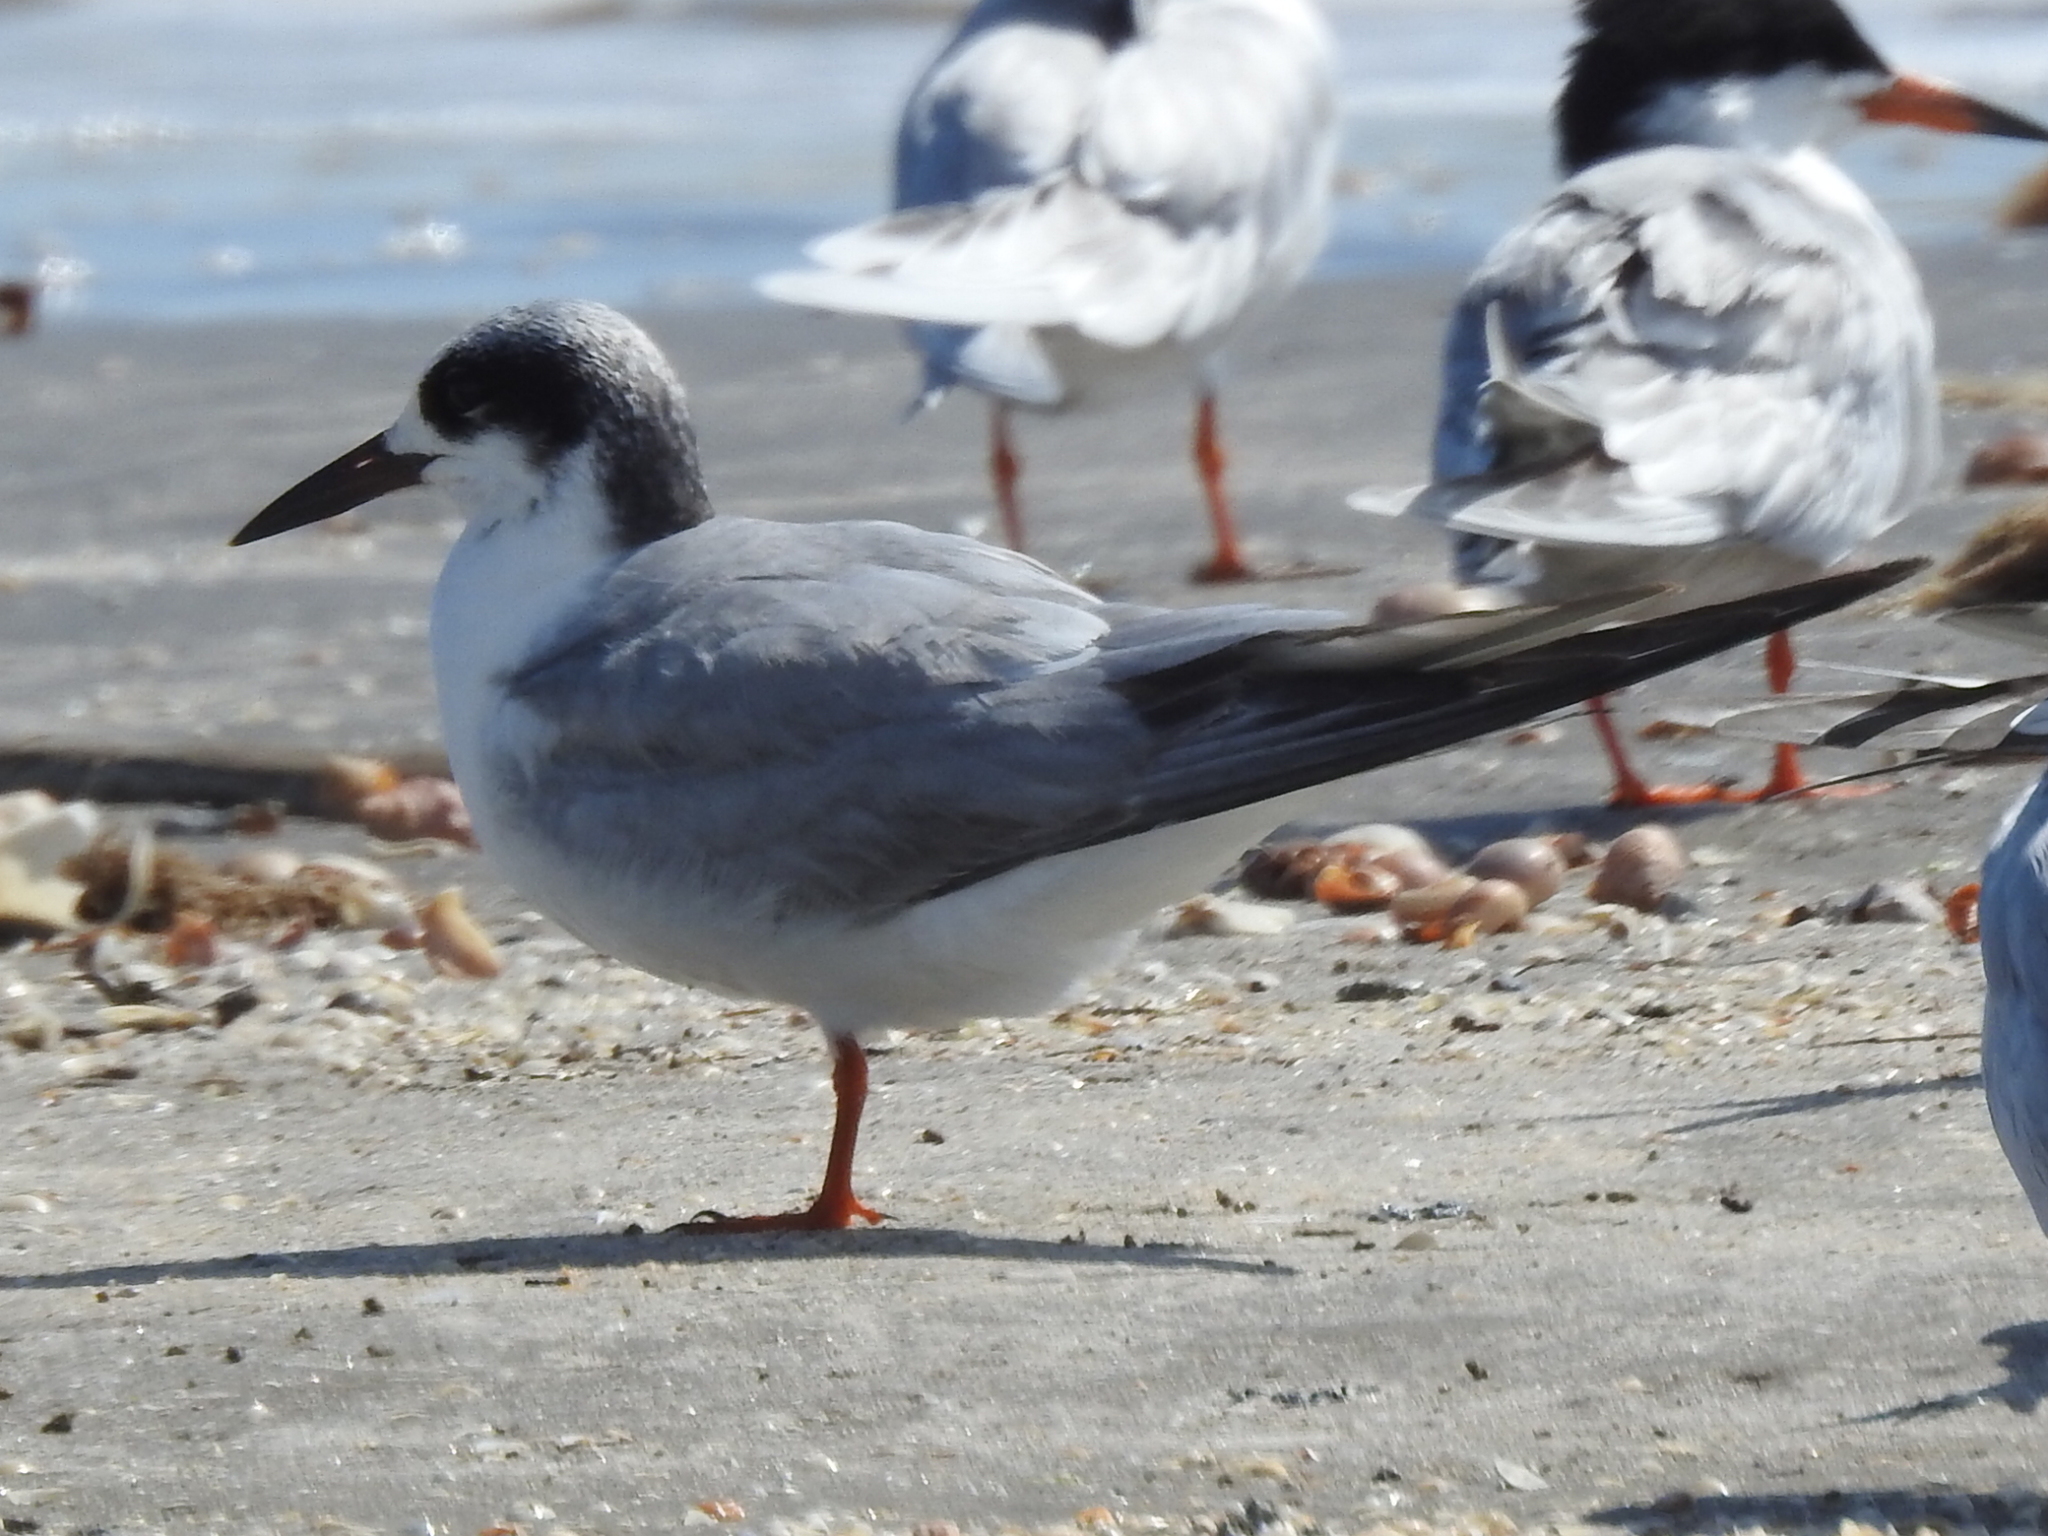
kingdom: Animalia
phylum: Chordata
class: Aves
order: Charadriiformes
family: Laridae
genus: Sterna
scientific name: Sterna forsteri
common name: Forster's tern
